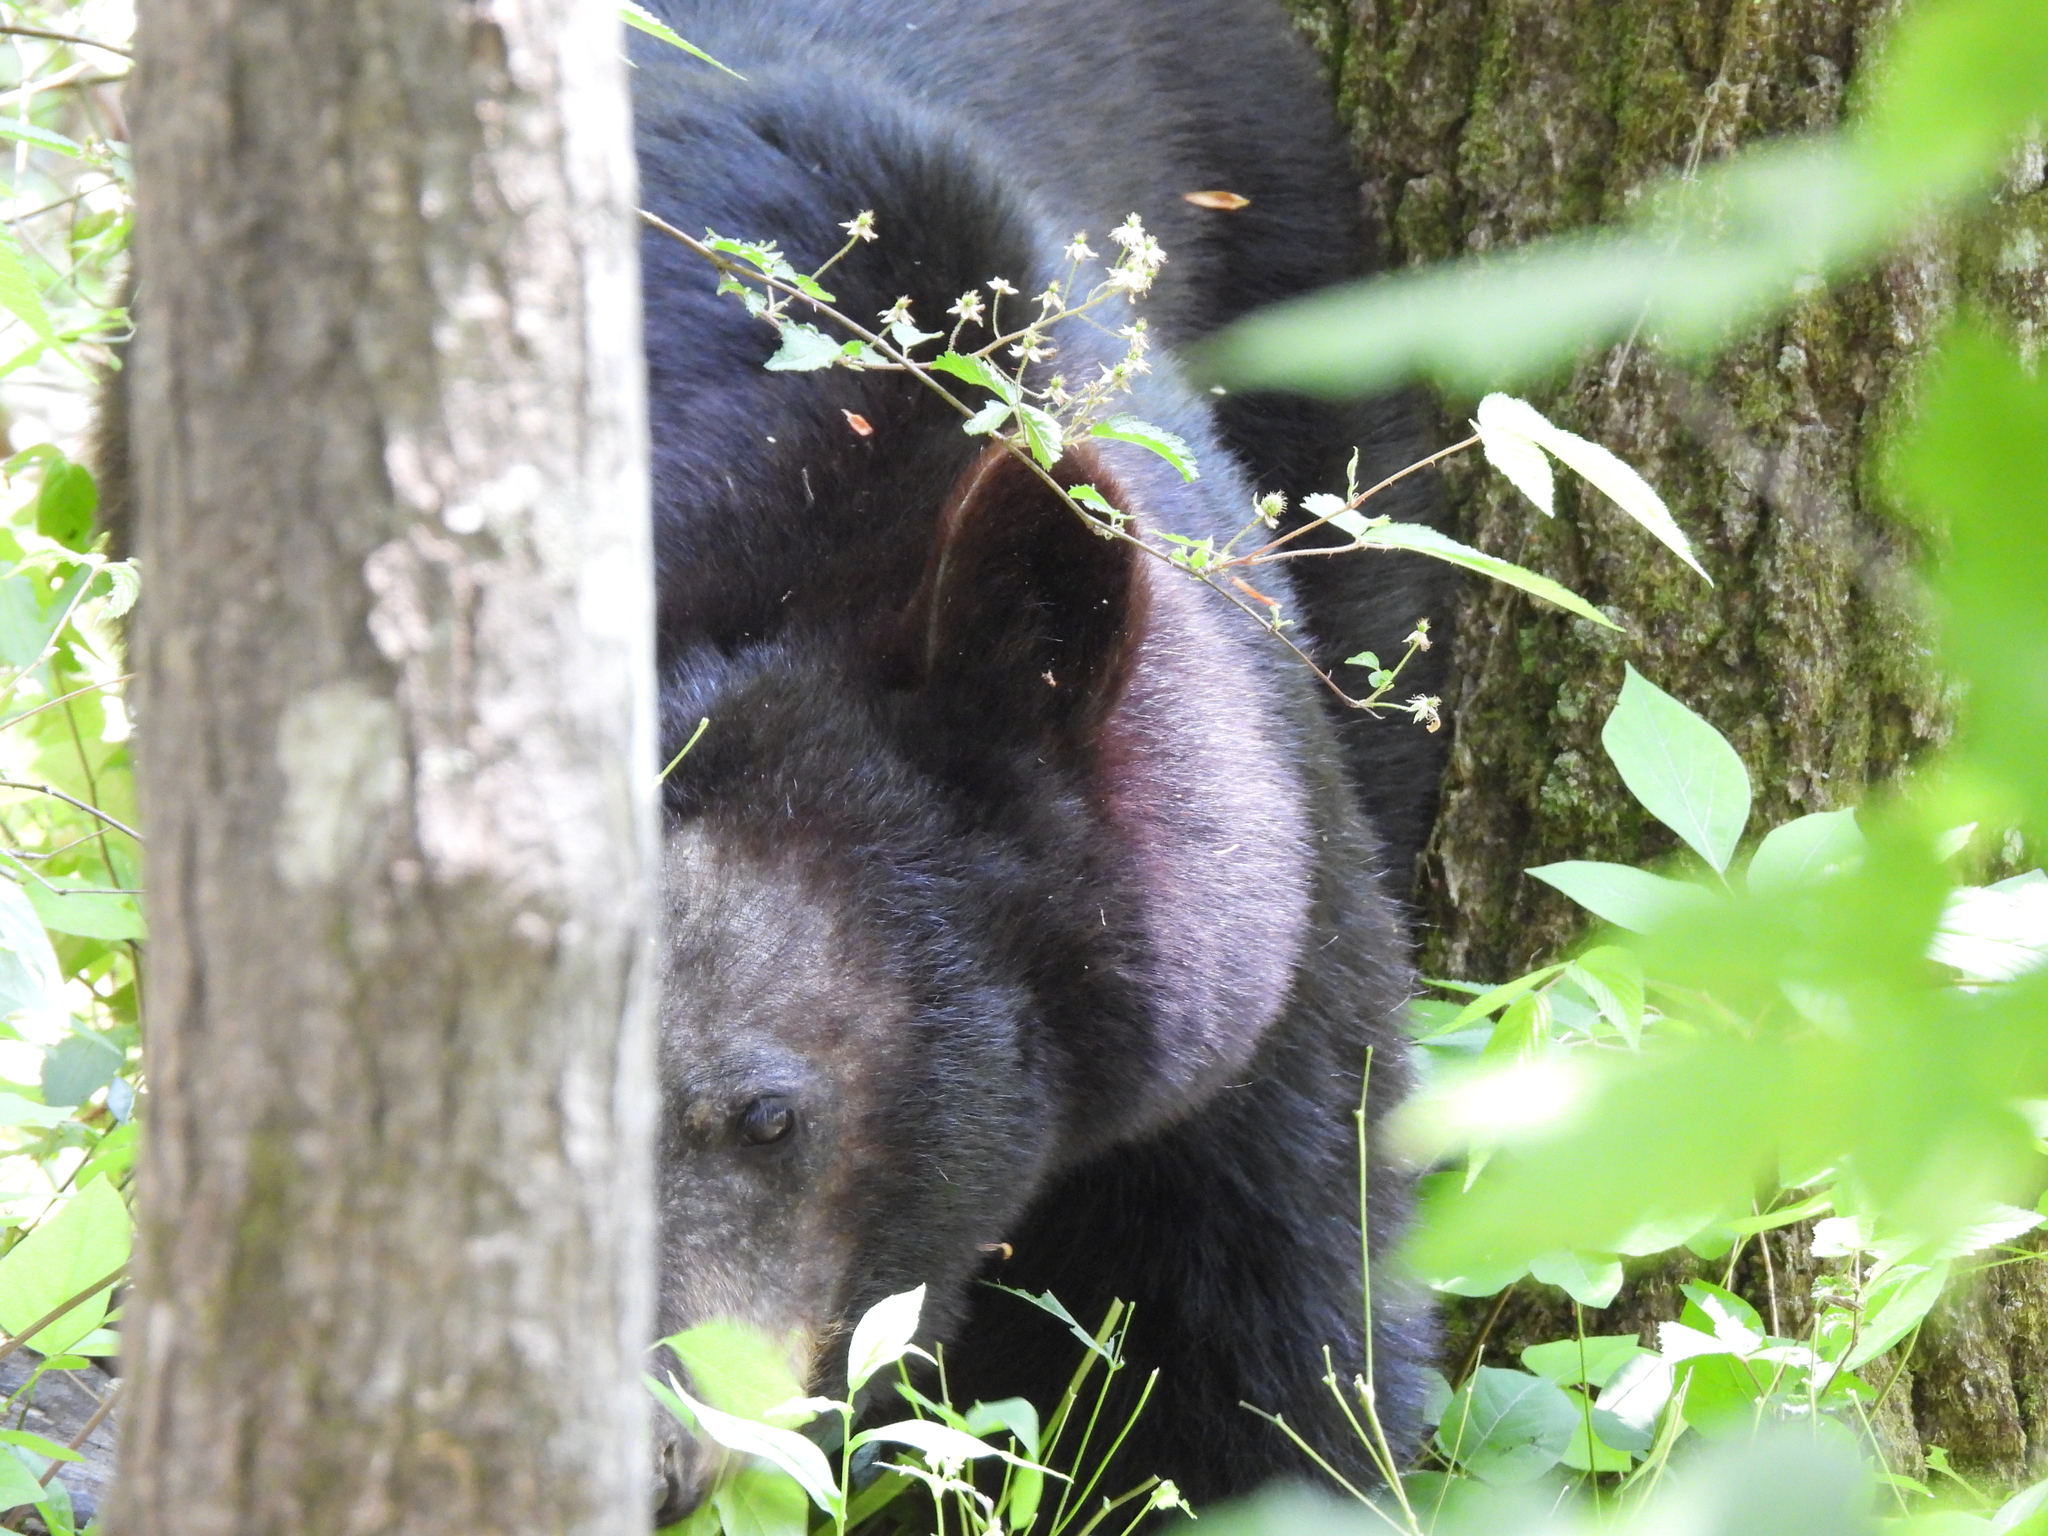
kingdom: Animalia
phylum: Chordata
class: Mammalia
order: Carnivora
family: Ursidae
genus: Ursus
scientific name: Ursus americanus
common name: American black bear
